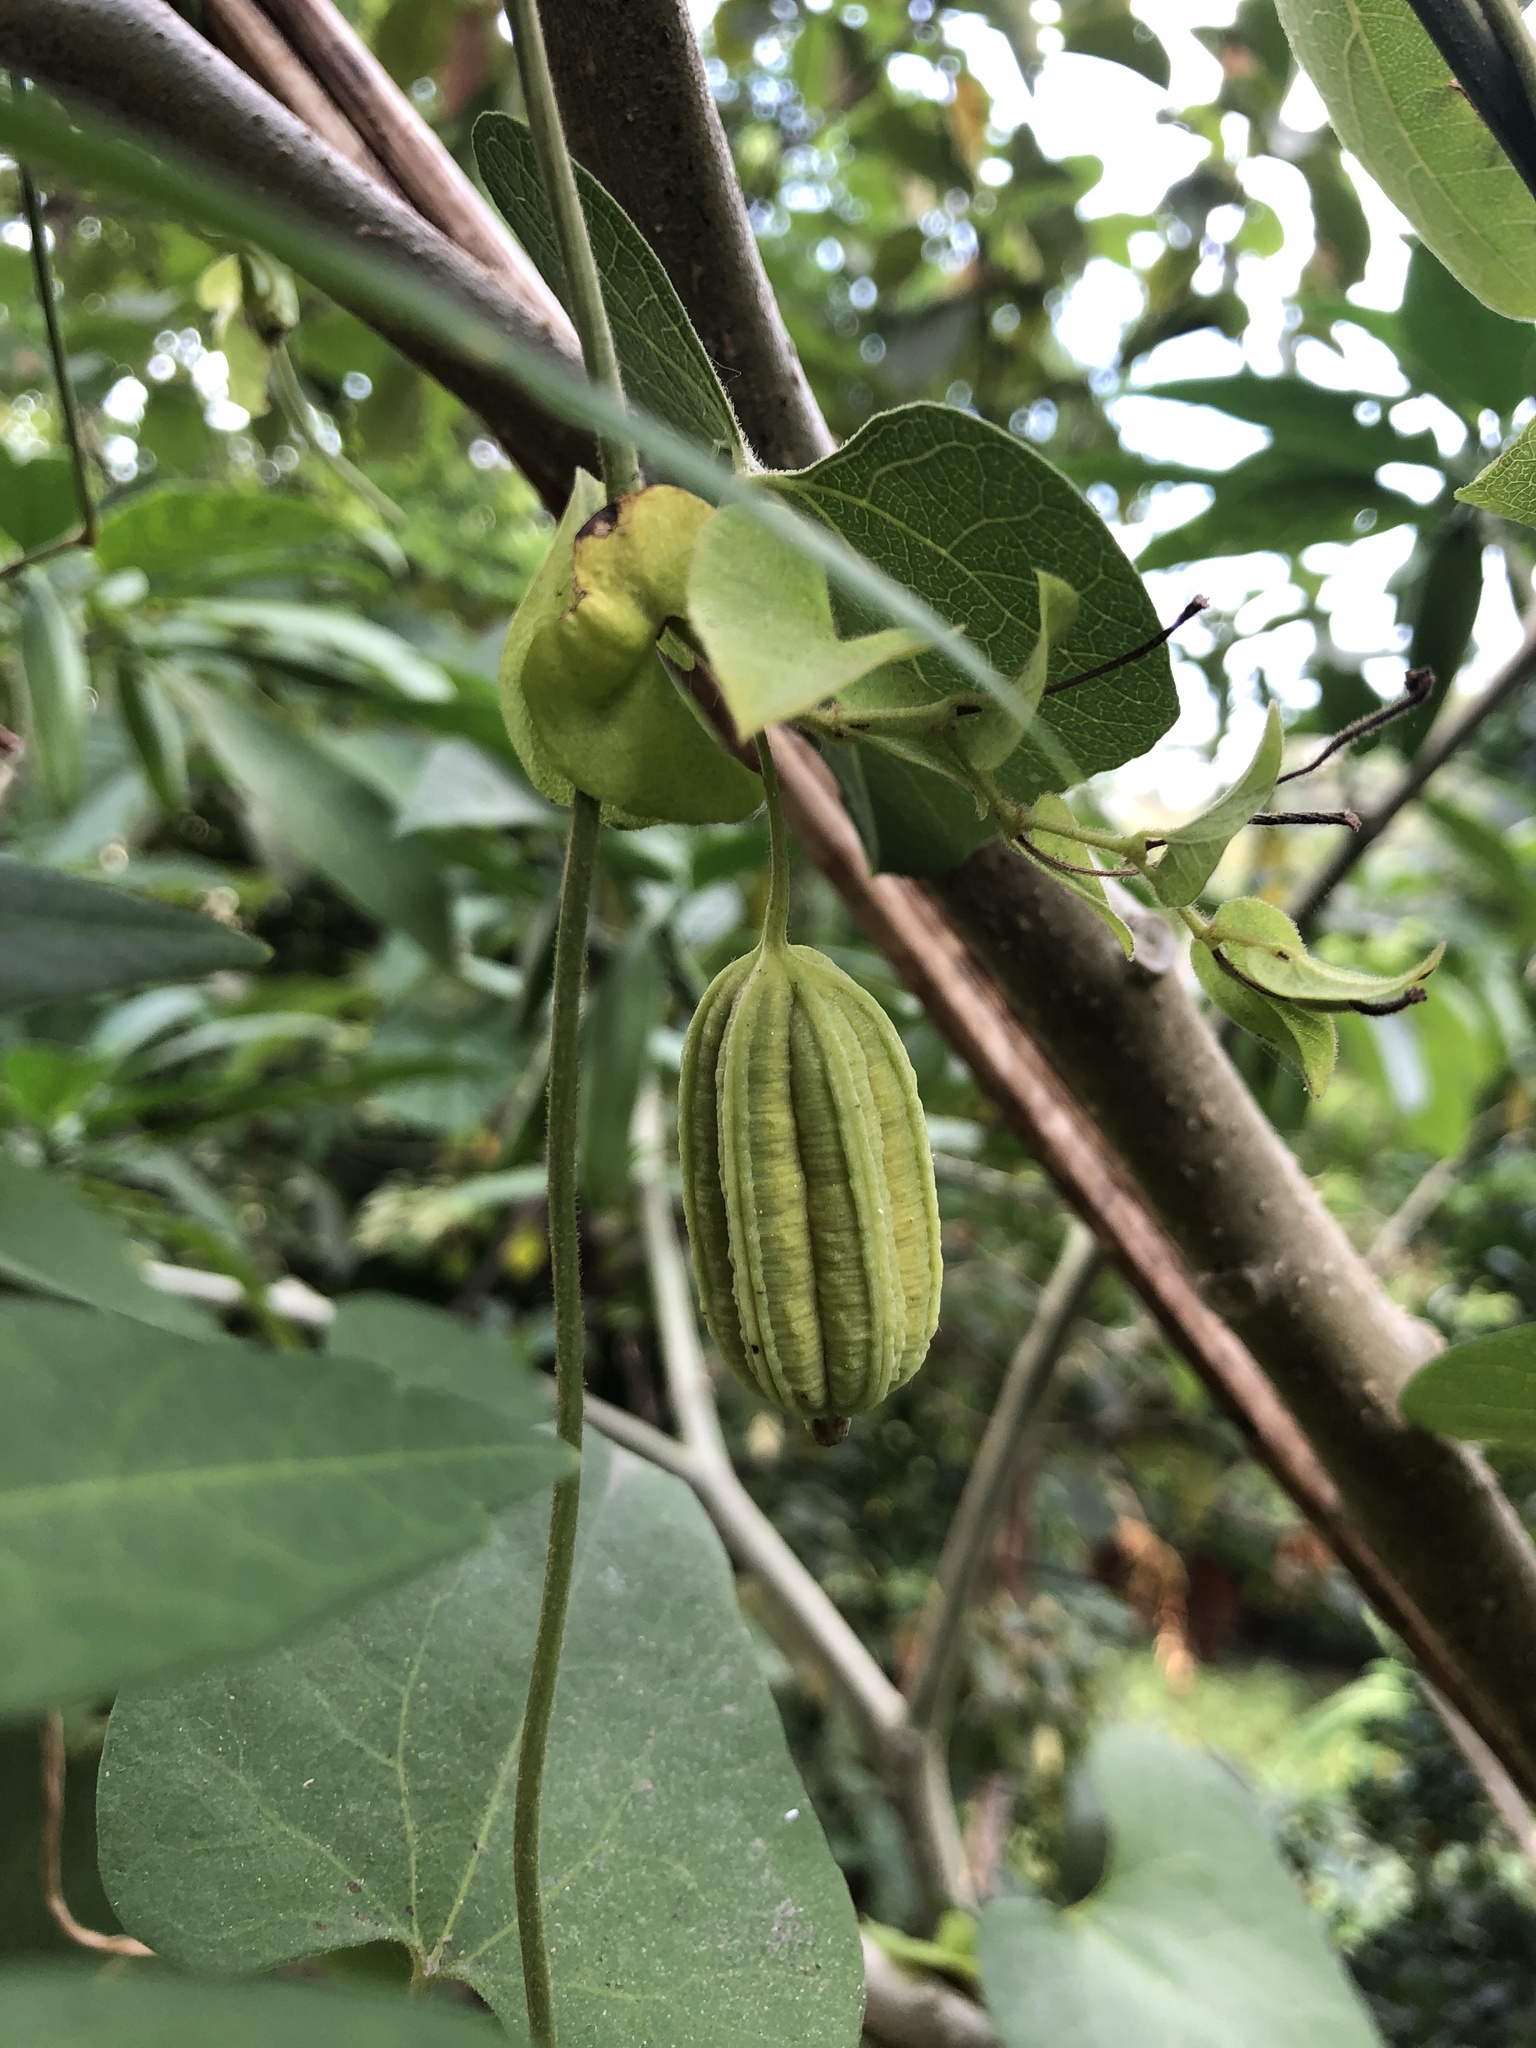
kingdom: Plantae
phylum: Tracheophyta
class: Magnoliopsida
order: Piperales
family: Aristolochiaceae
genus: Aristolochia
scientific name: Aristolochia anguicida
